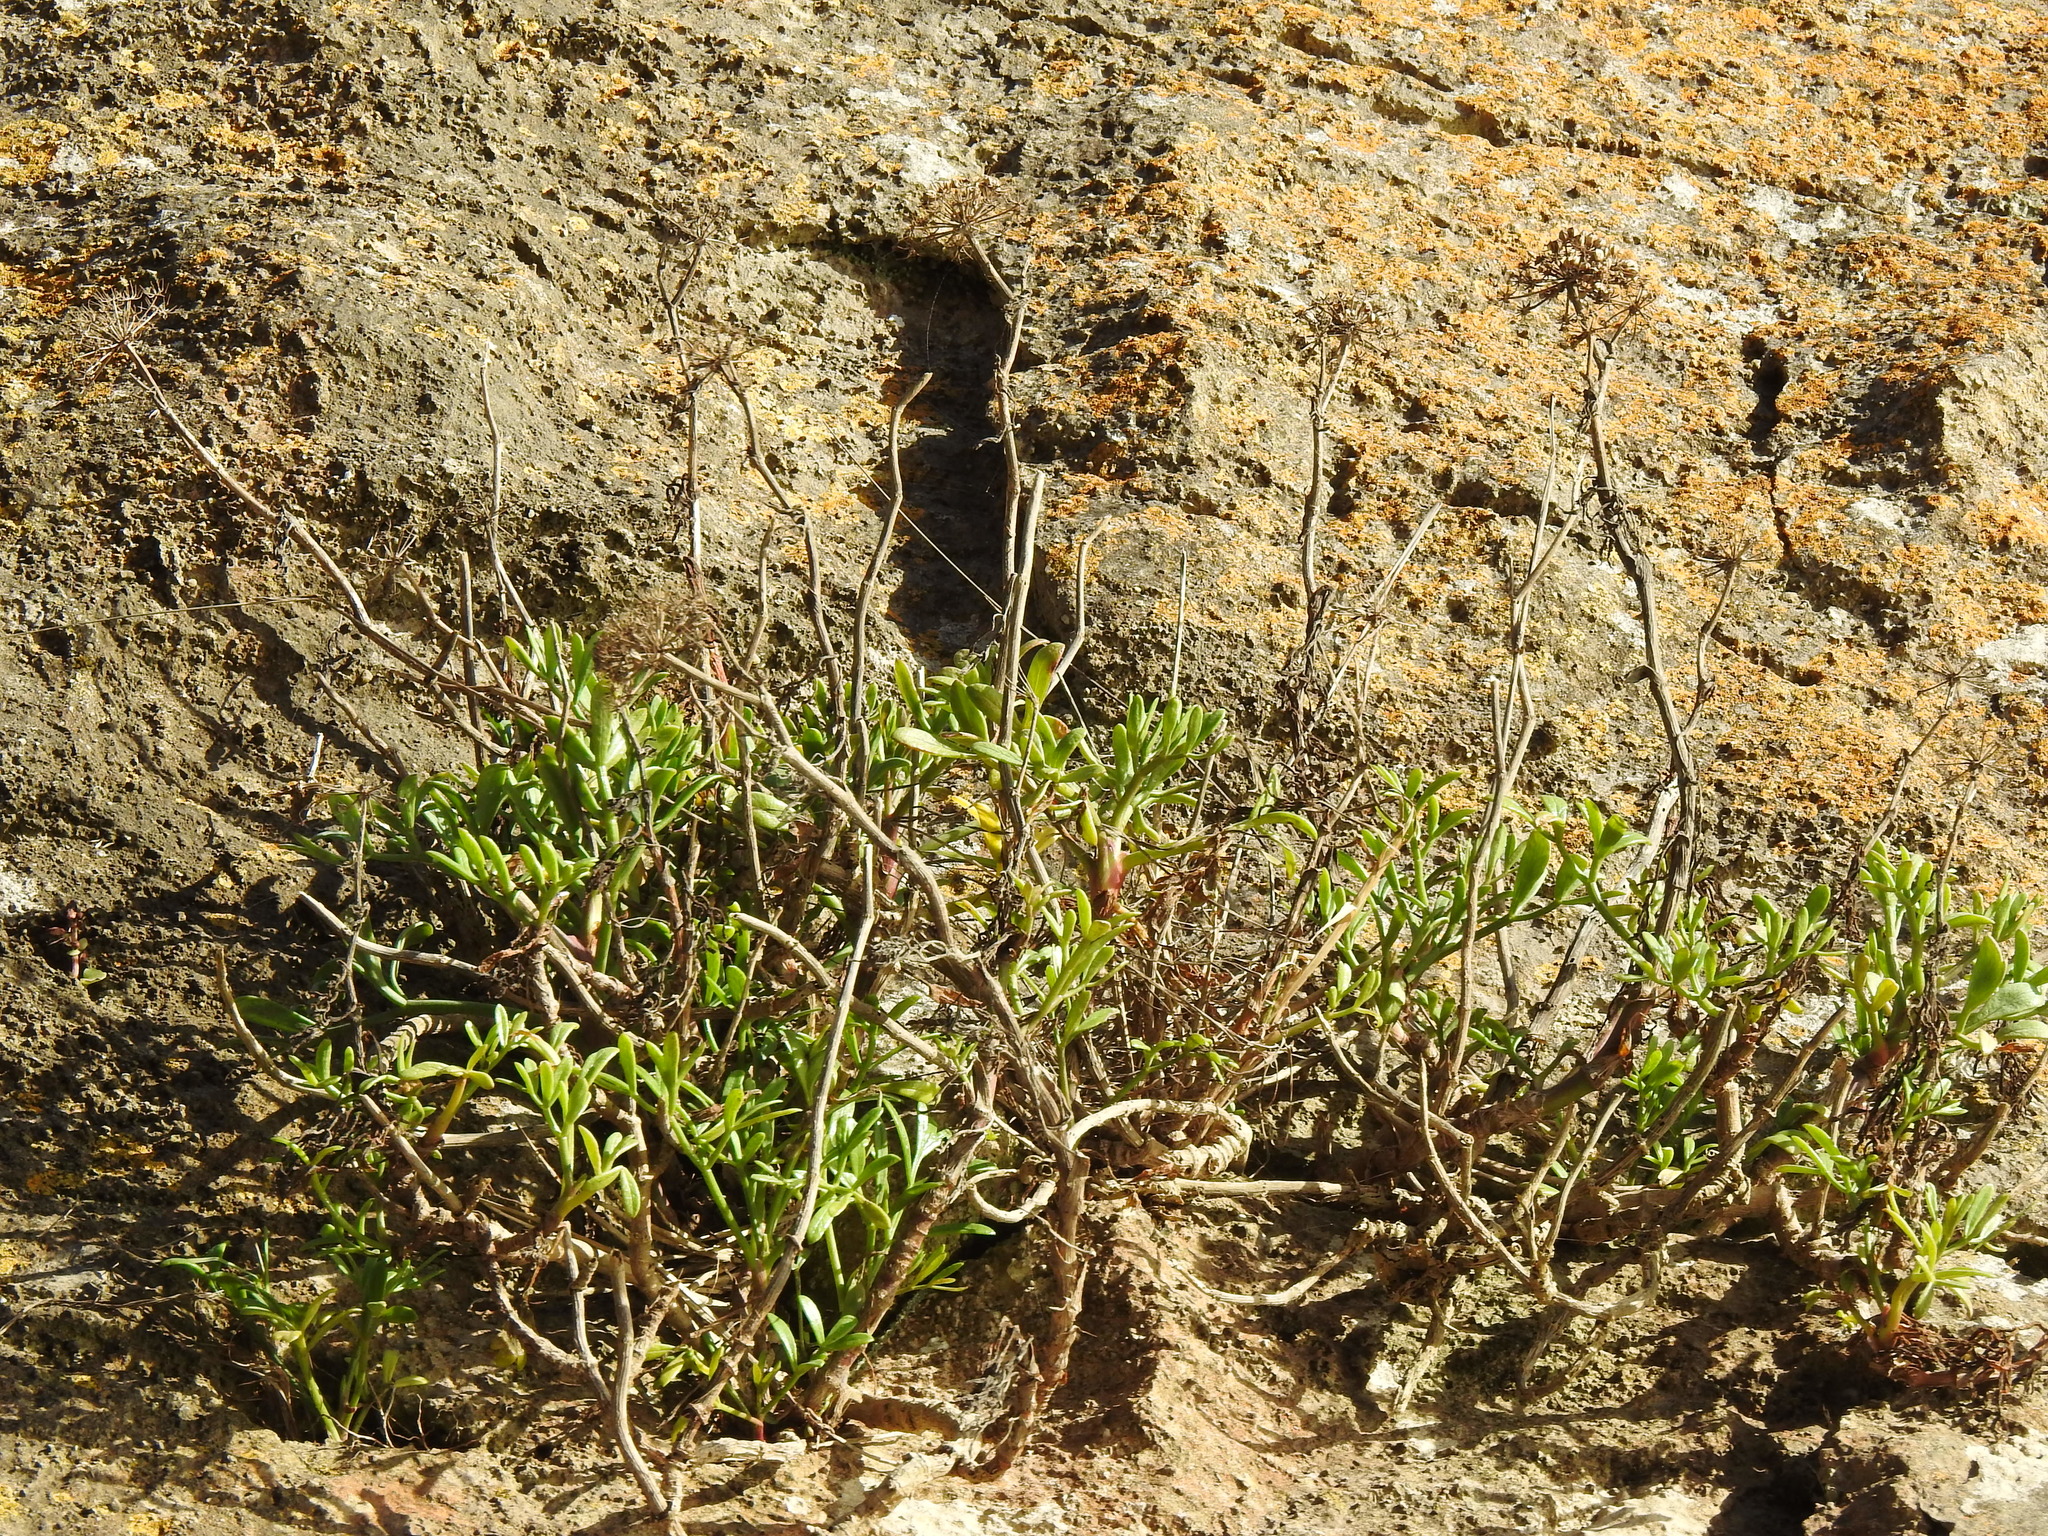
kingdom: Plantae
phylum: Tracheophyta
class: Magnoliopsida
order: Apiales
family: Apiaceae
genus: Crithmum
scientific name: Crithmum maritimum
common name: Rock samphire
